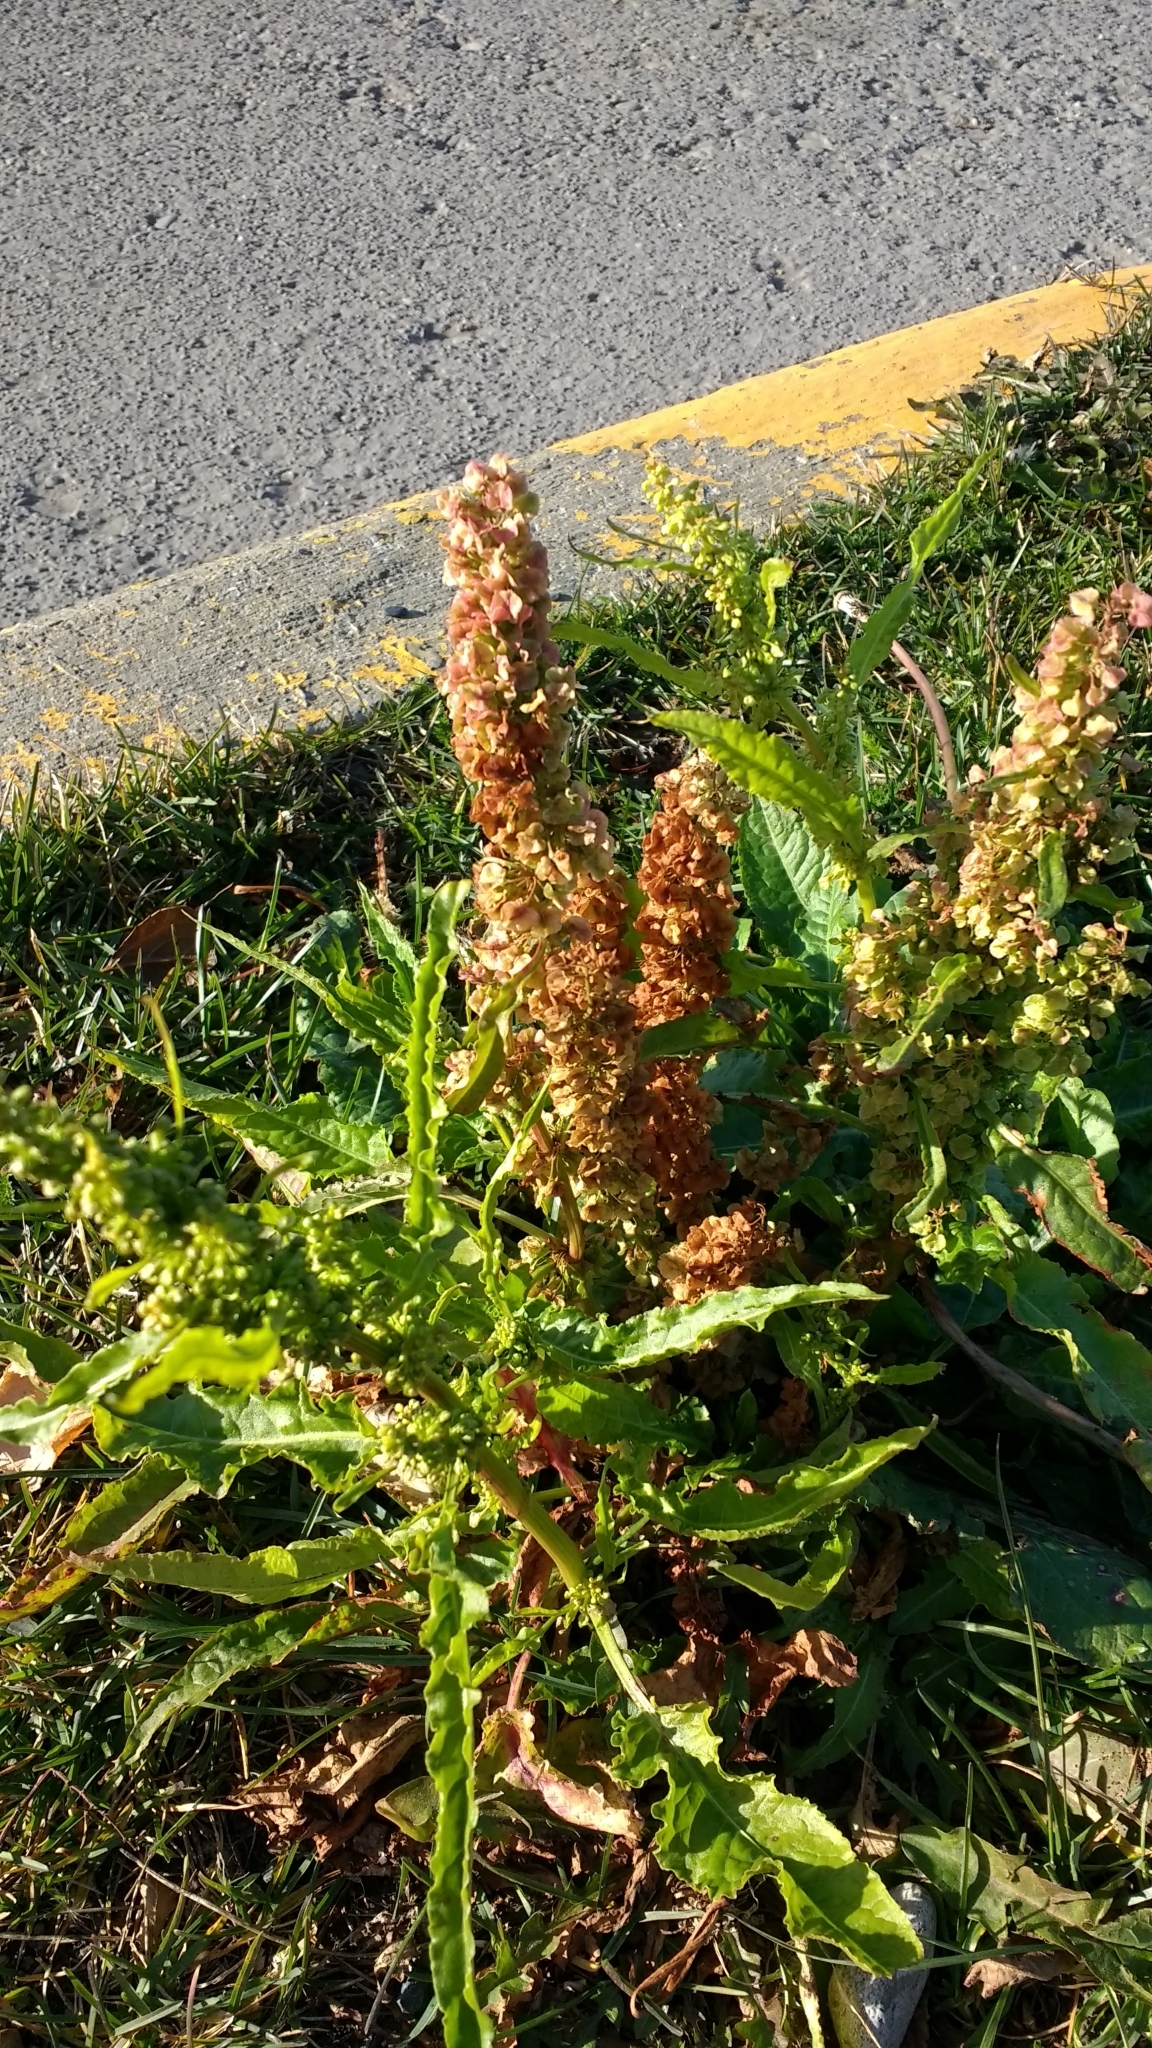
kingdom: Plantae
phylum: Tracheophyta
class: Magnoliopsida
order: Caryophyllales
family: Polygonaceae
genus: Rumex
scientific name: Rumex crispus
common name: Curled dock
